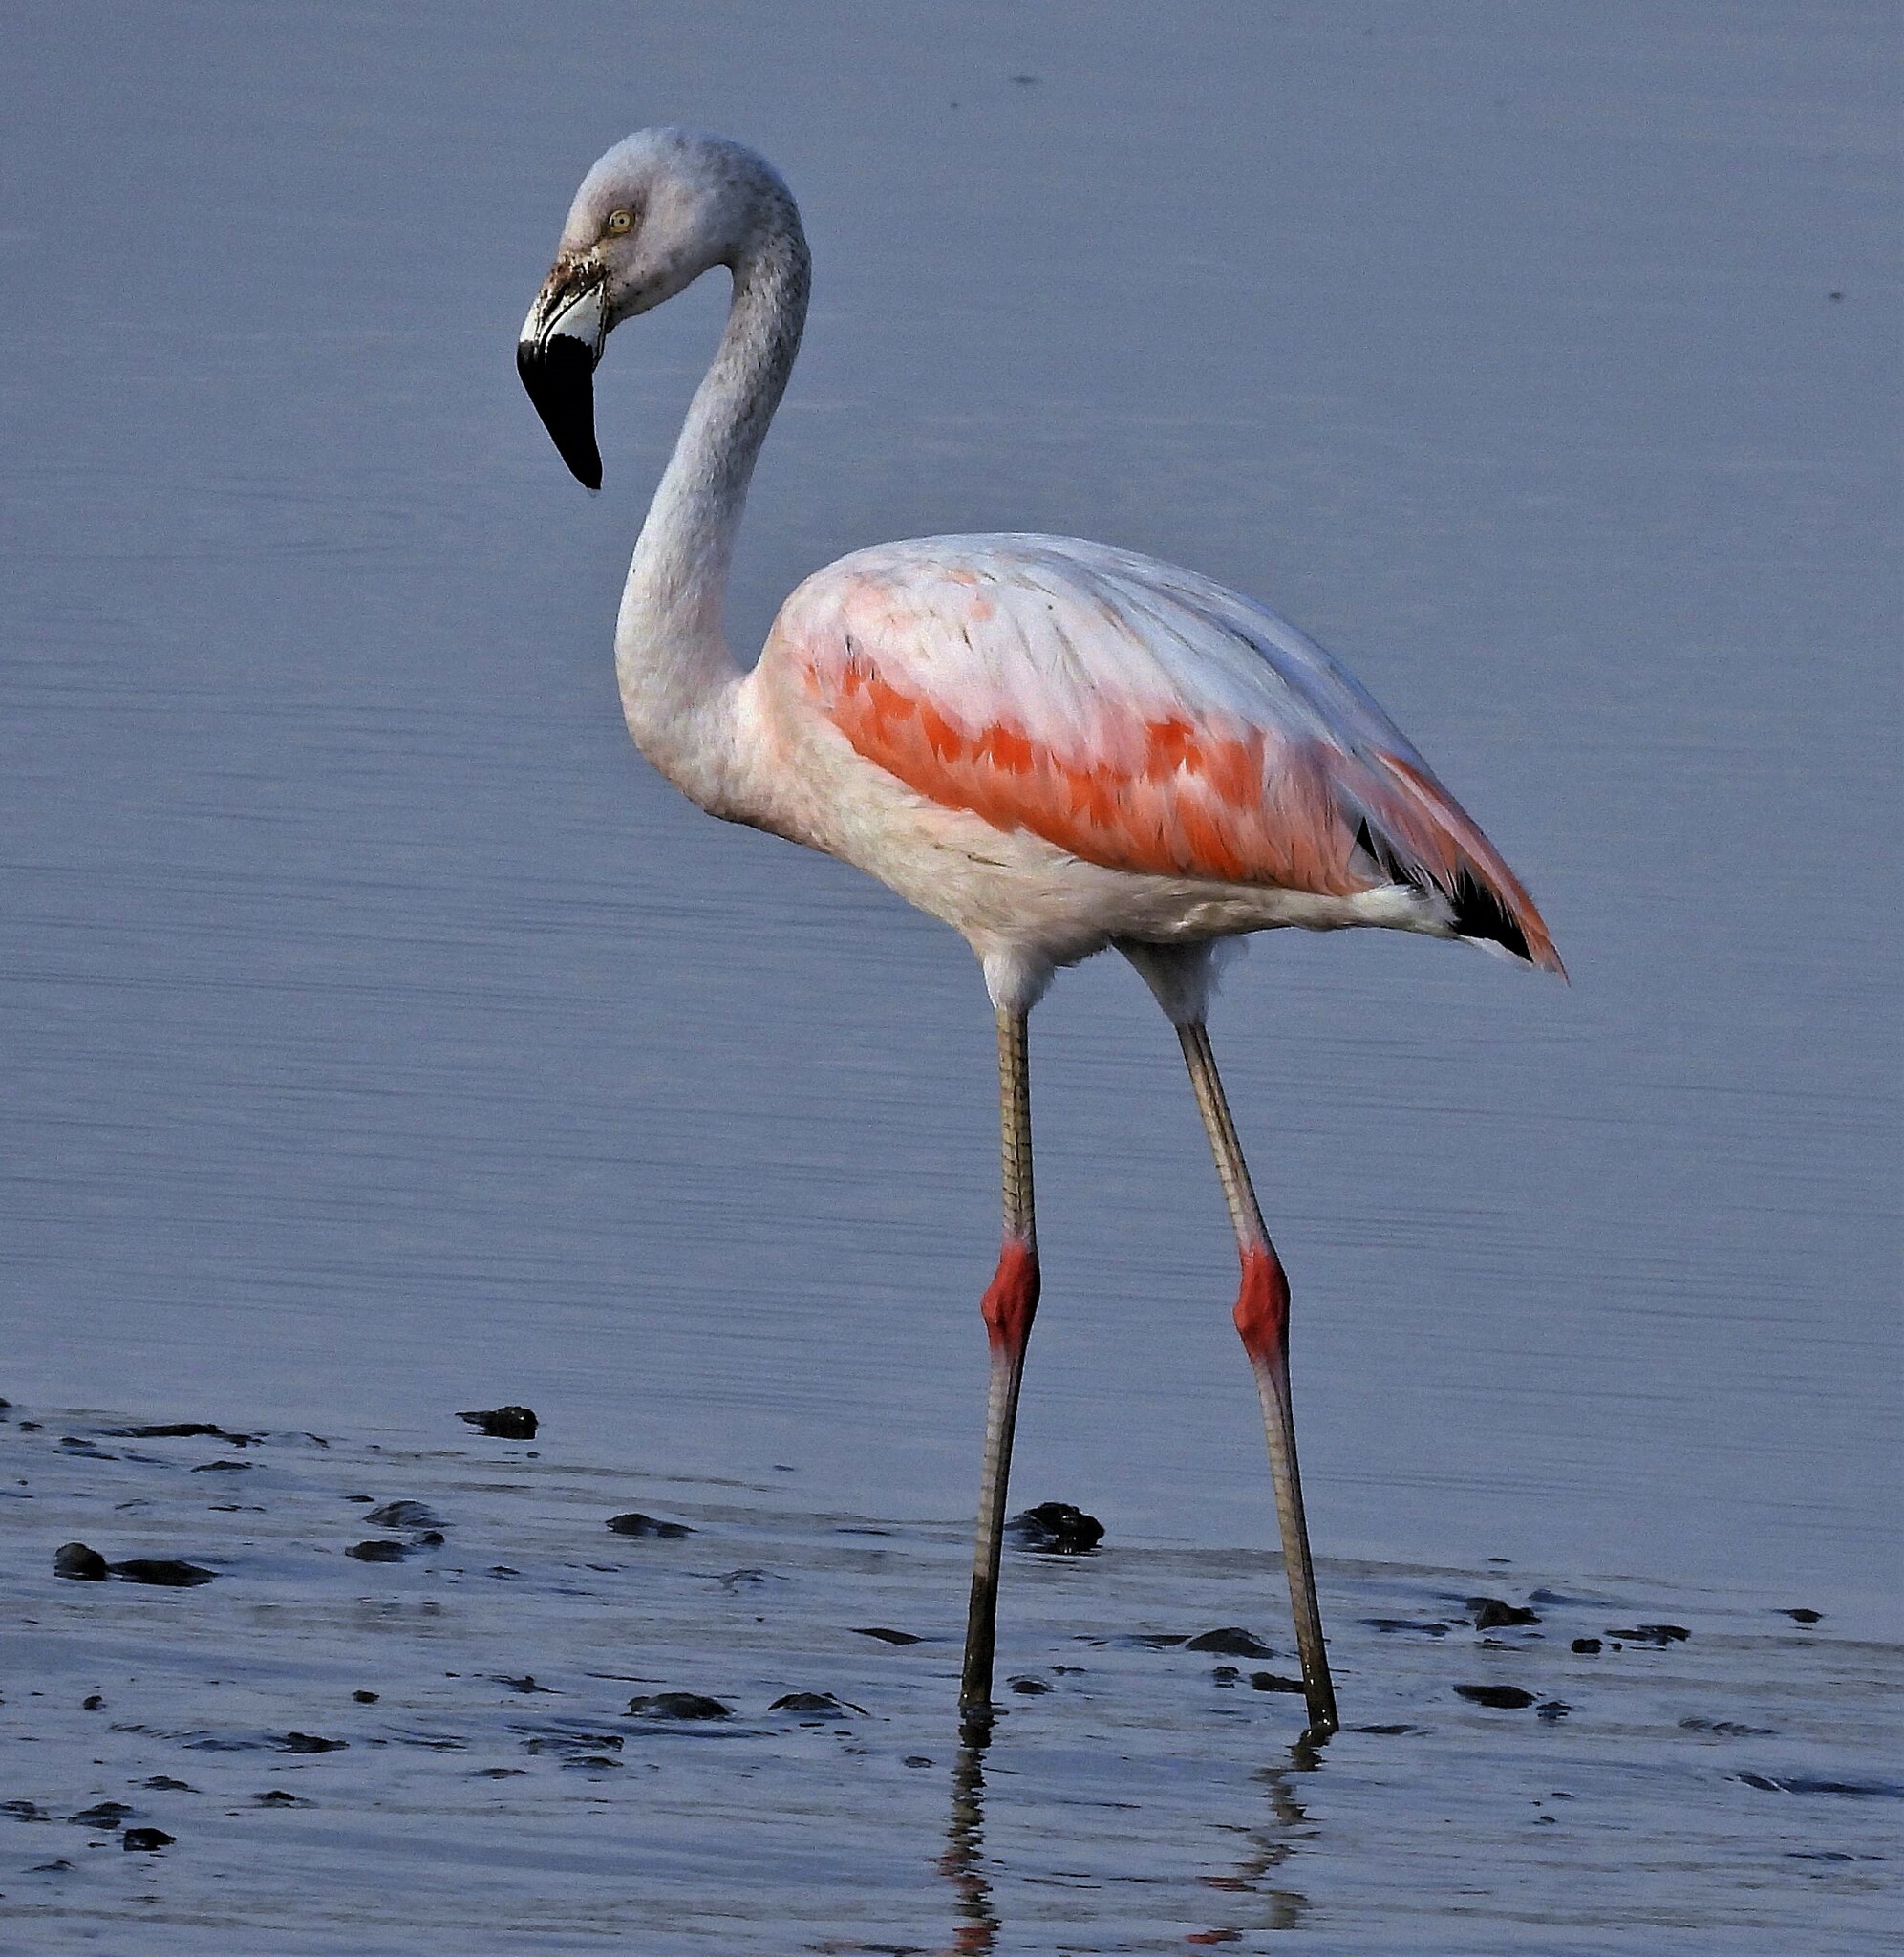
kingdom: Animalia
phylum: Chordata
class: Aves
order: Phoenicopteriformes
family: Phoenicopteridae
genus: Phoenicopterus
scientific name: Phoenicopterus chilensis
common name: Chilean flamingo
